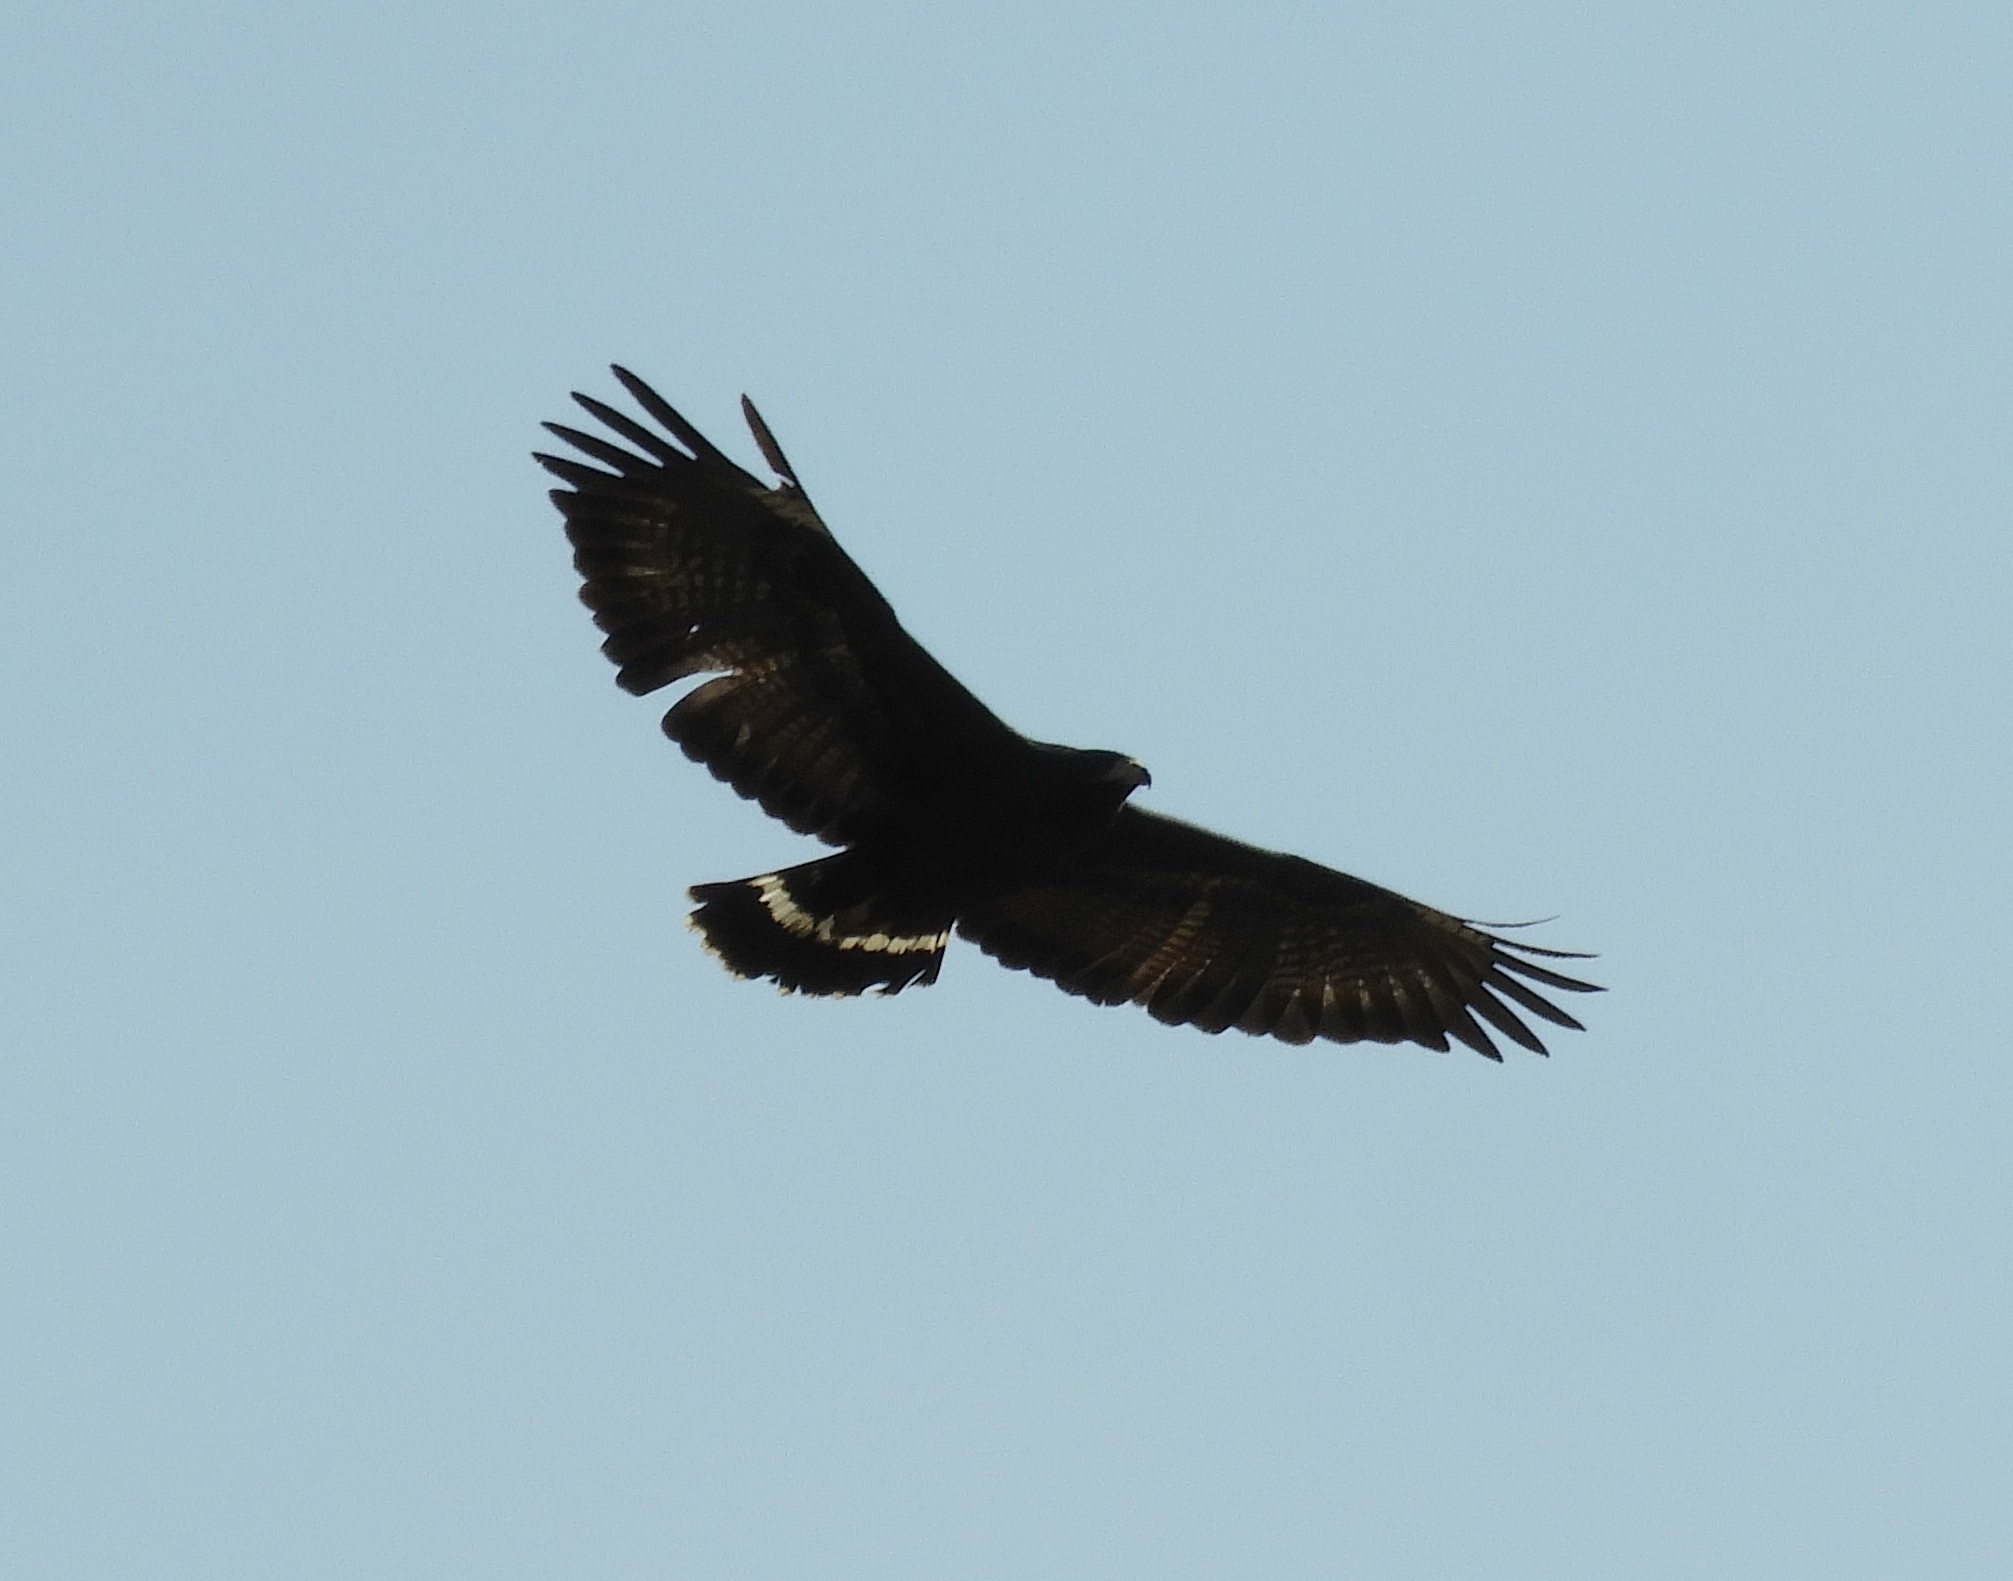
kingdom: Animalia
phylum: Chordata
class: Aves
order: Accipitriformes
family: Accipitridae
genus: Buteogallus
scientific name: Buteogallus anthracinus
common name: Common black hawk
